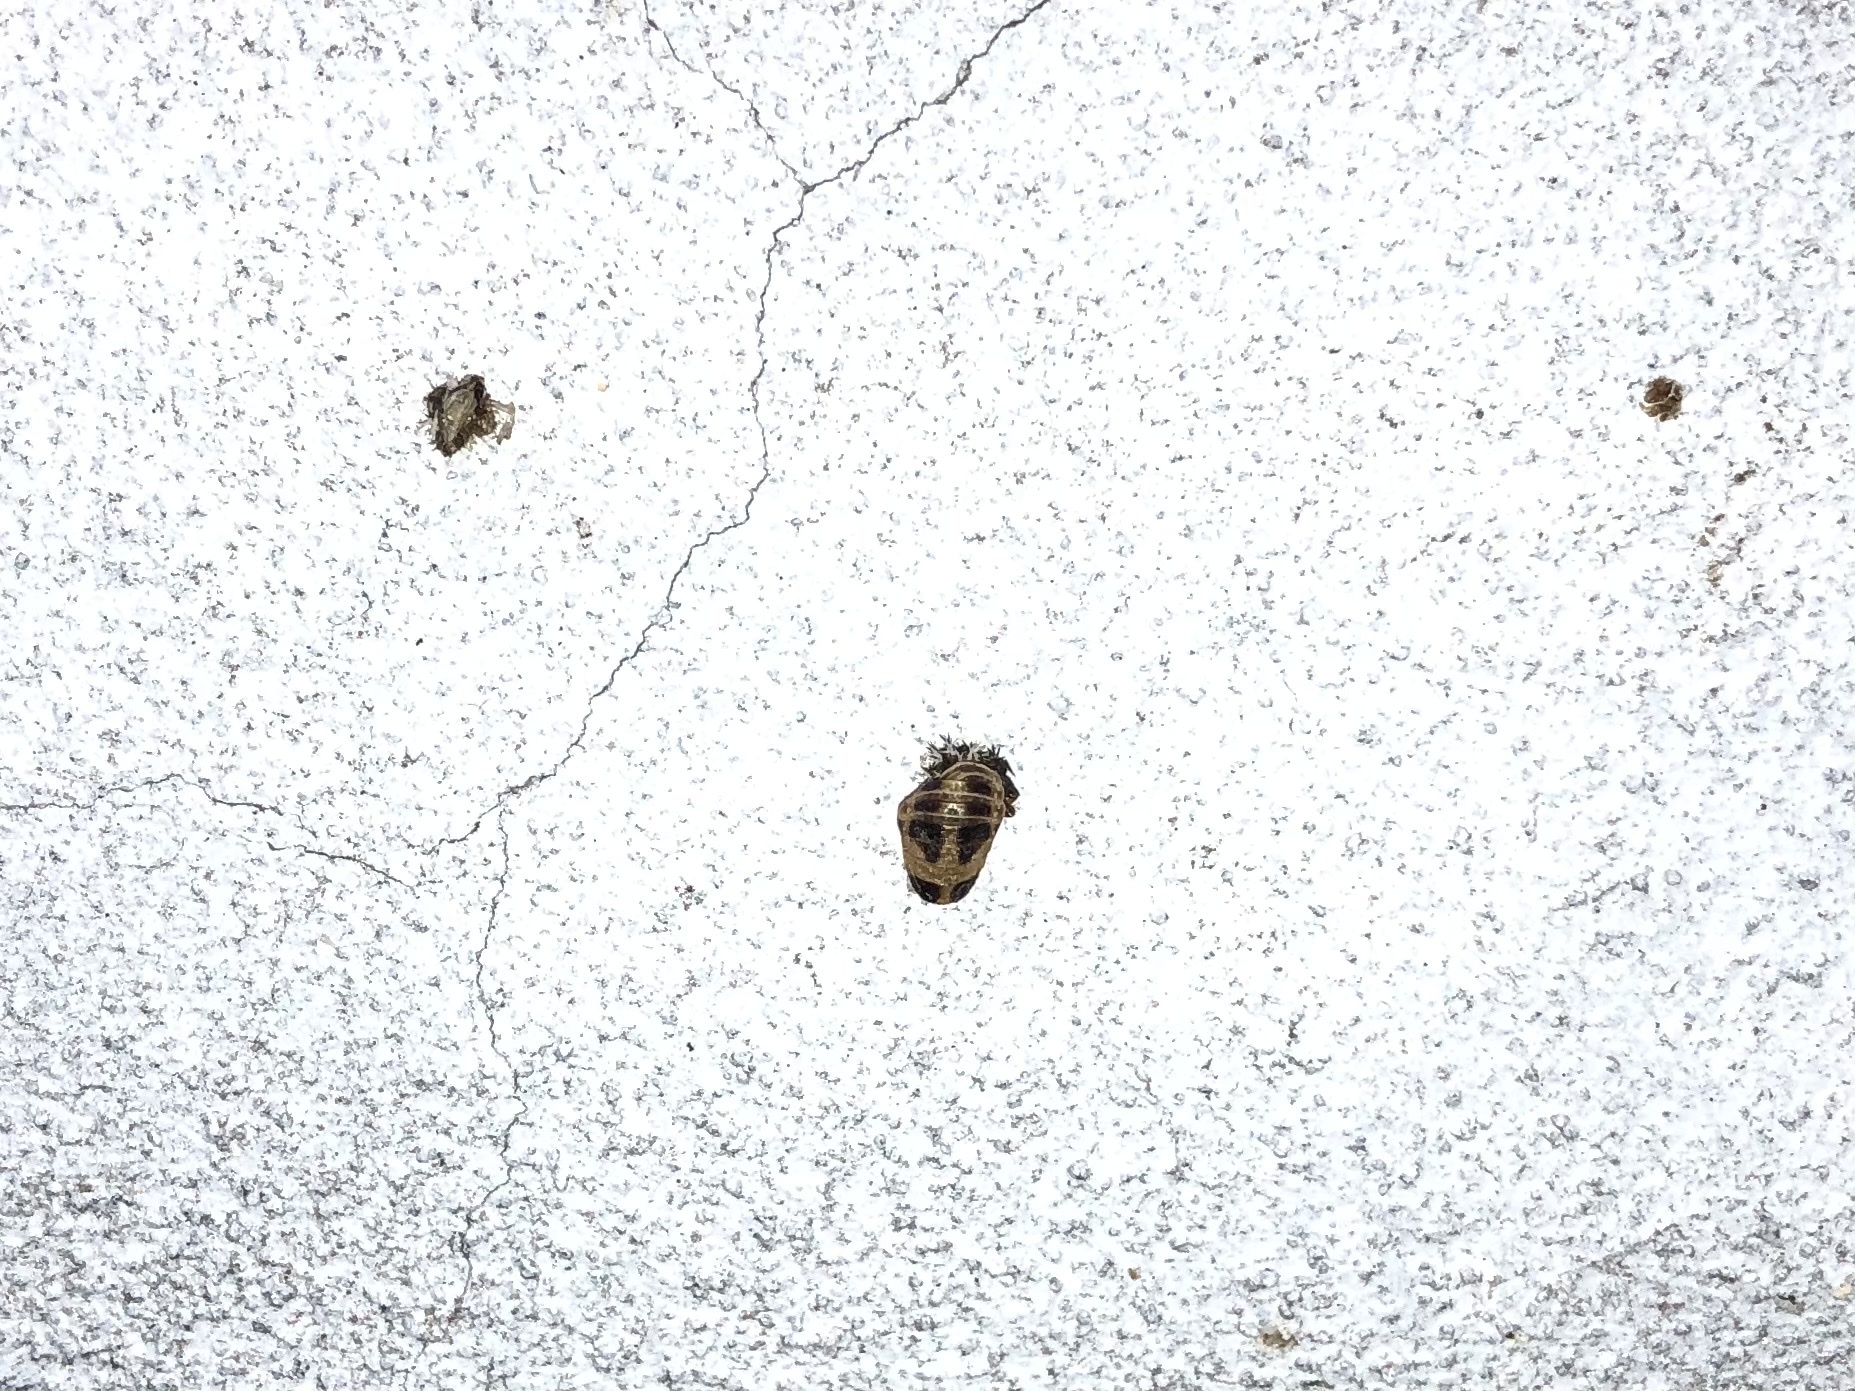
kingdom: Animalia
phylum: Arthropoda
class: Insecta
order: Coleoptera
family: Coccinellidae
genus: Harmonia
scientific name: Harmonia axyridis
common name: Harlequin ladybird
